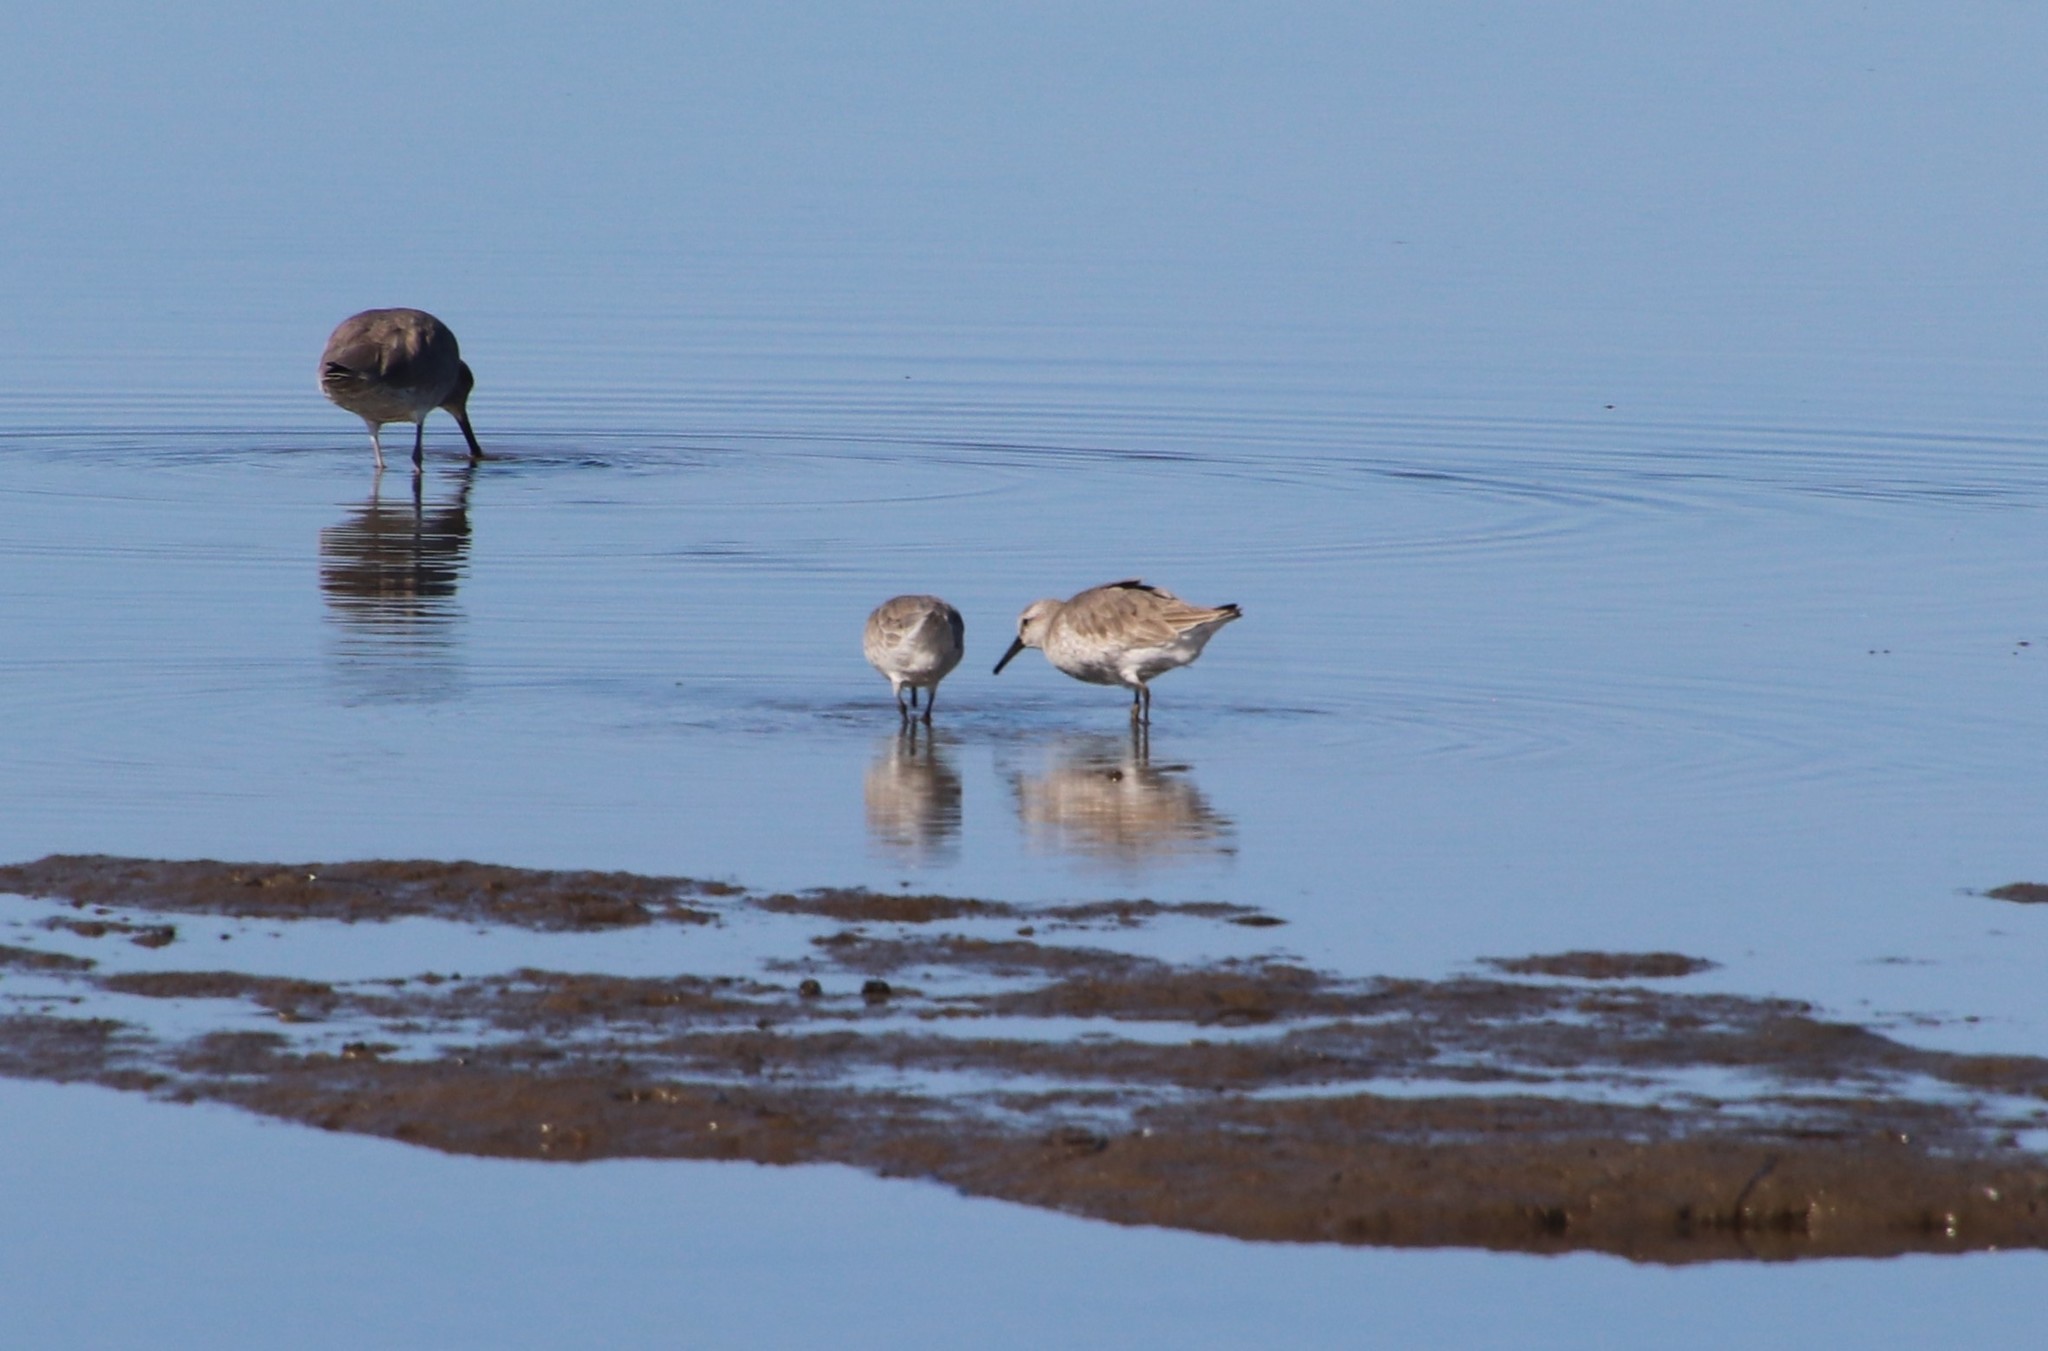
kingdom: Animalia
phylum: Chordata
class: Aves
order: Charadriiformes
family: Scolopacidae
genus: Calidris
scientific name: Calidris canutus
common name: Red knot
